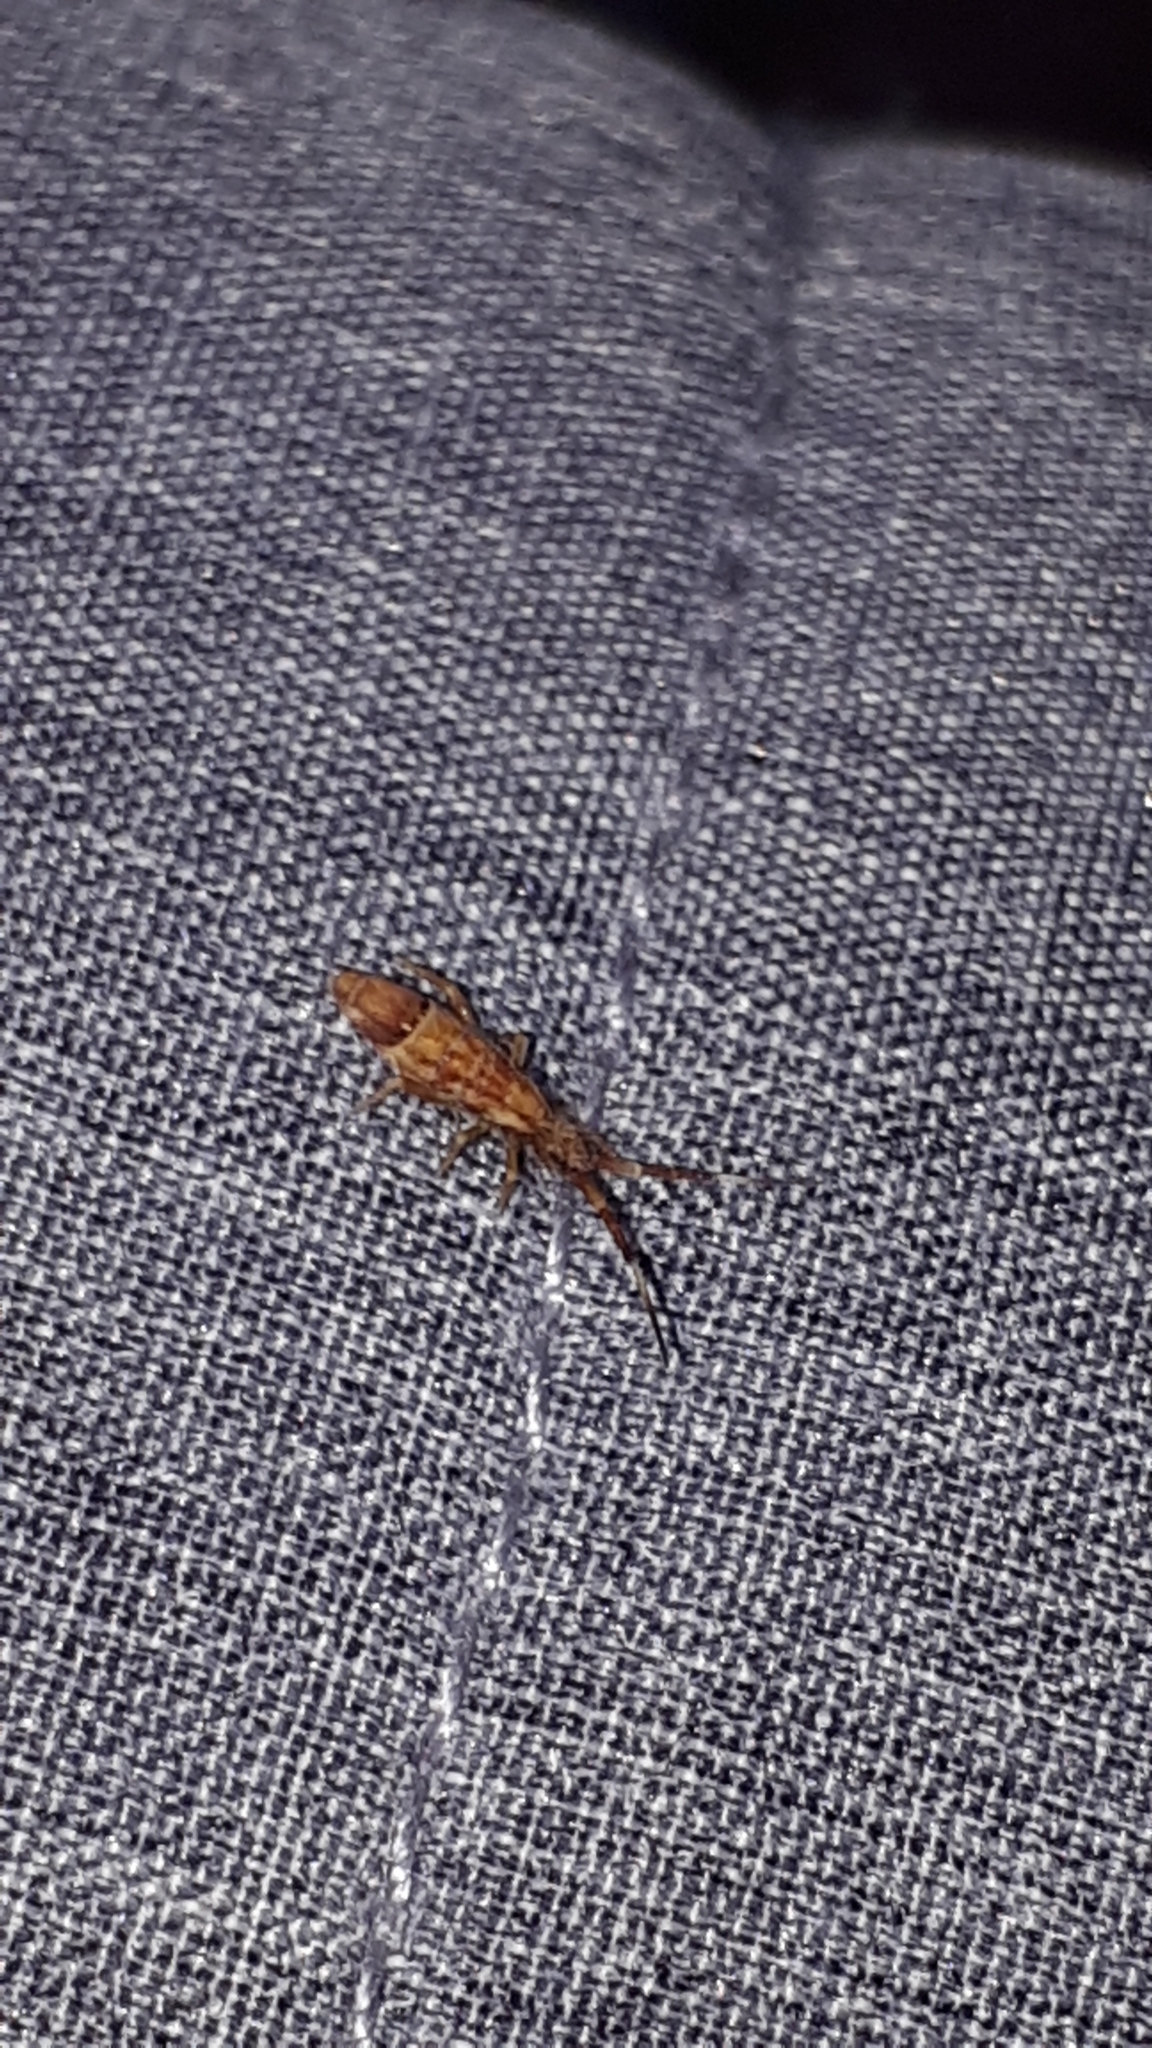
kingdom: Animalia
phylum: Arthropoda
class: Collembola
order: Entomobryomorpha
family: Entomobryidae
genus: Entomobrya
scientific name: Entomobrya nivalis
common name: Cosmopolitan springtail
